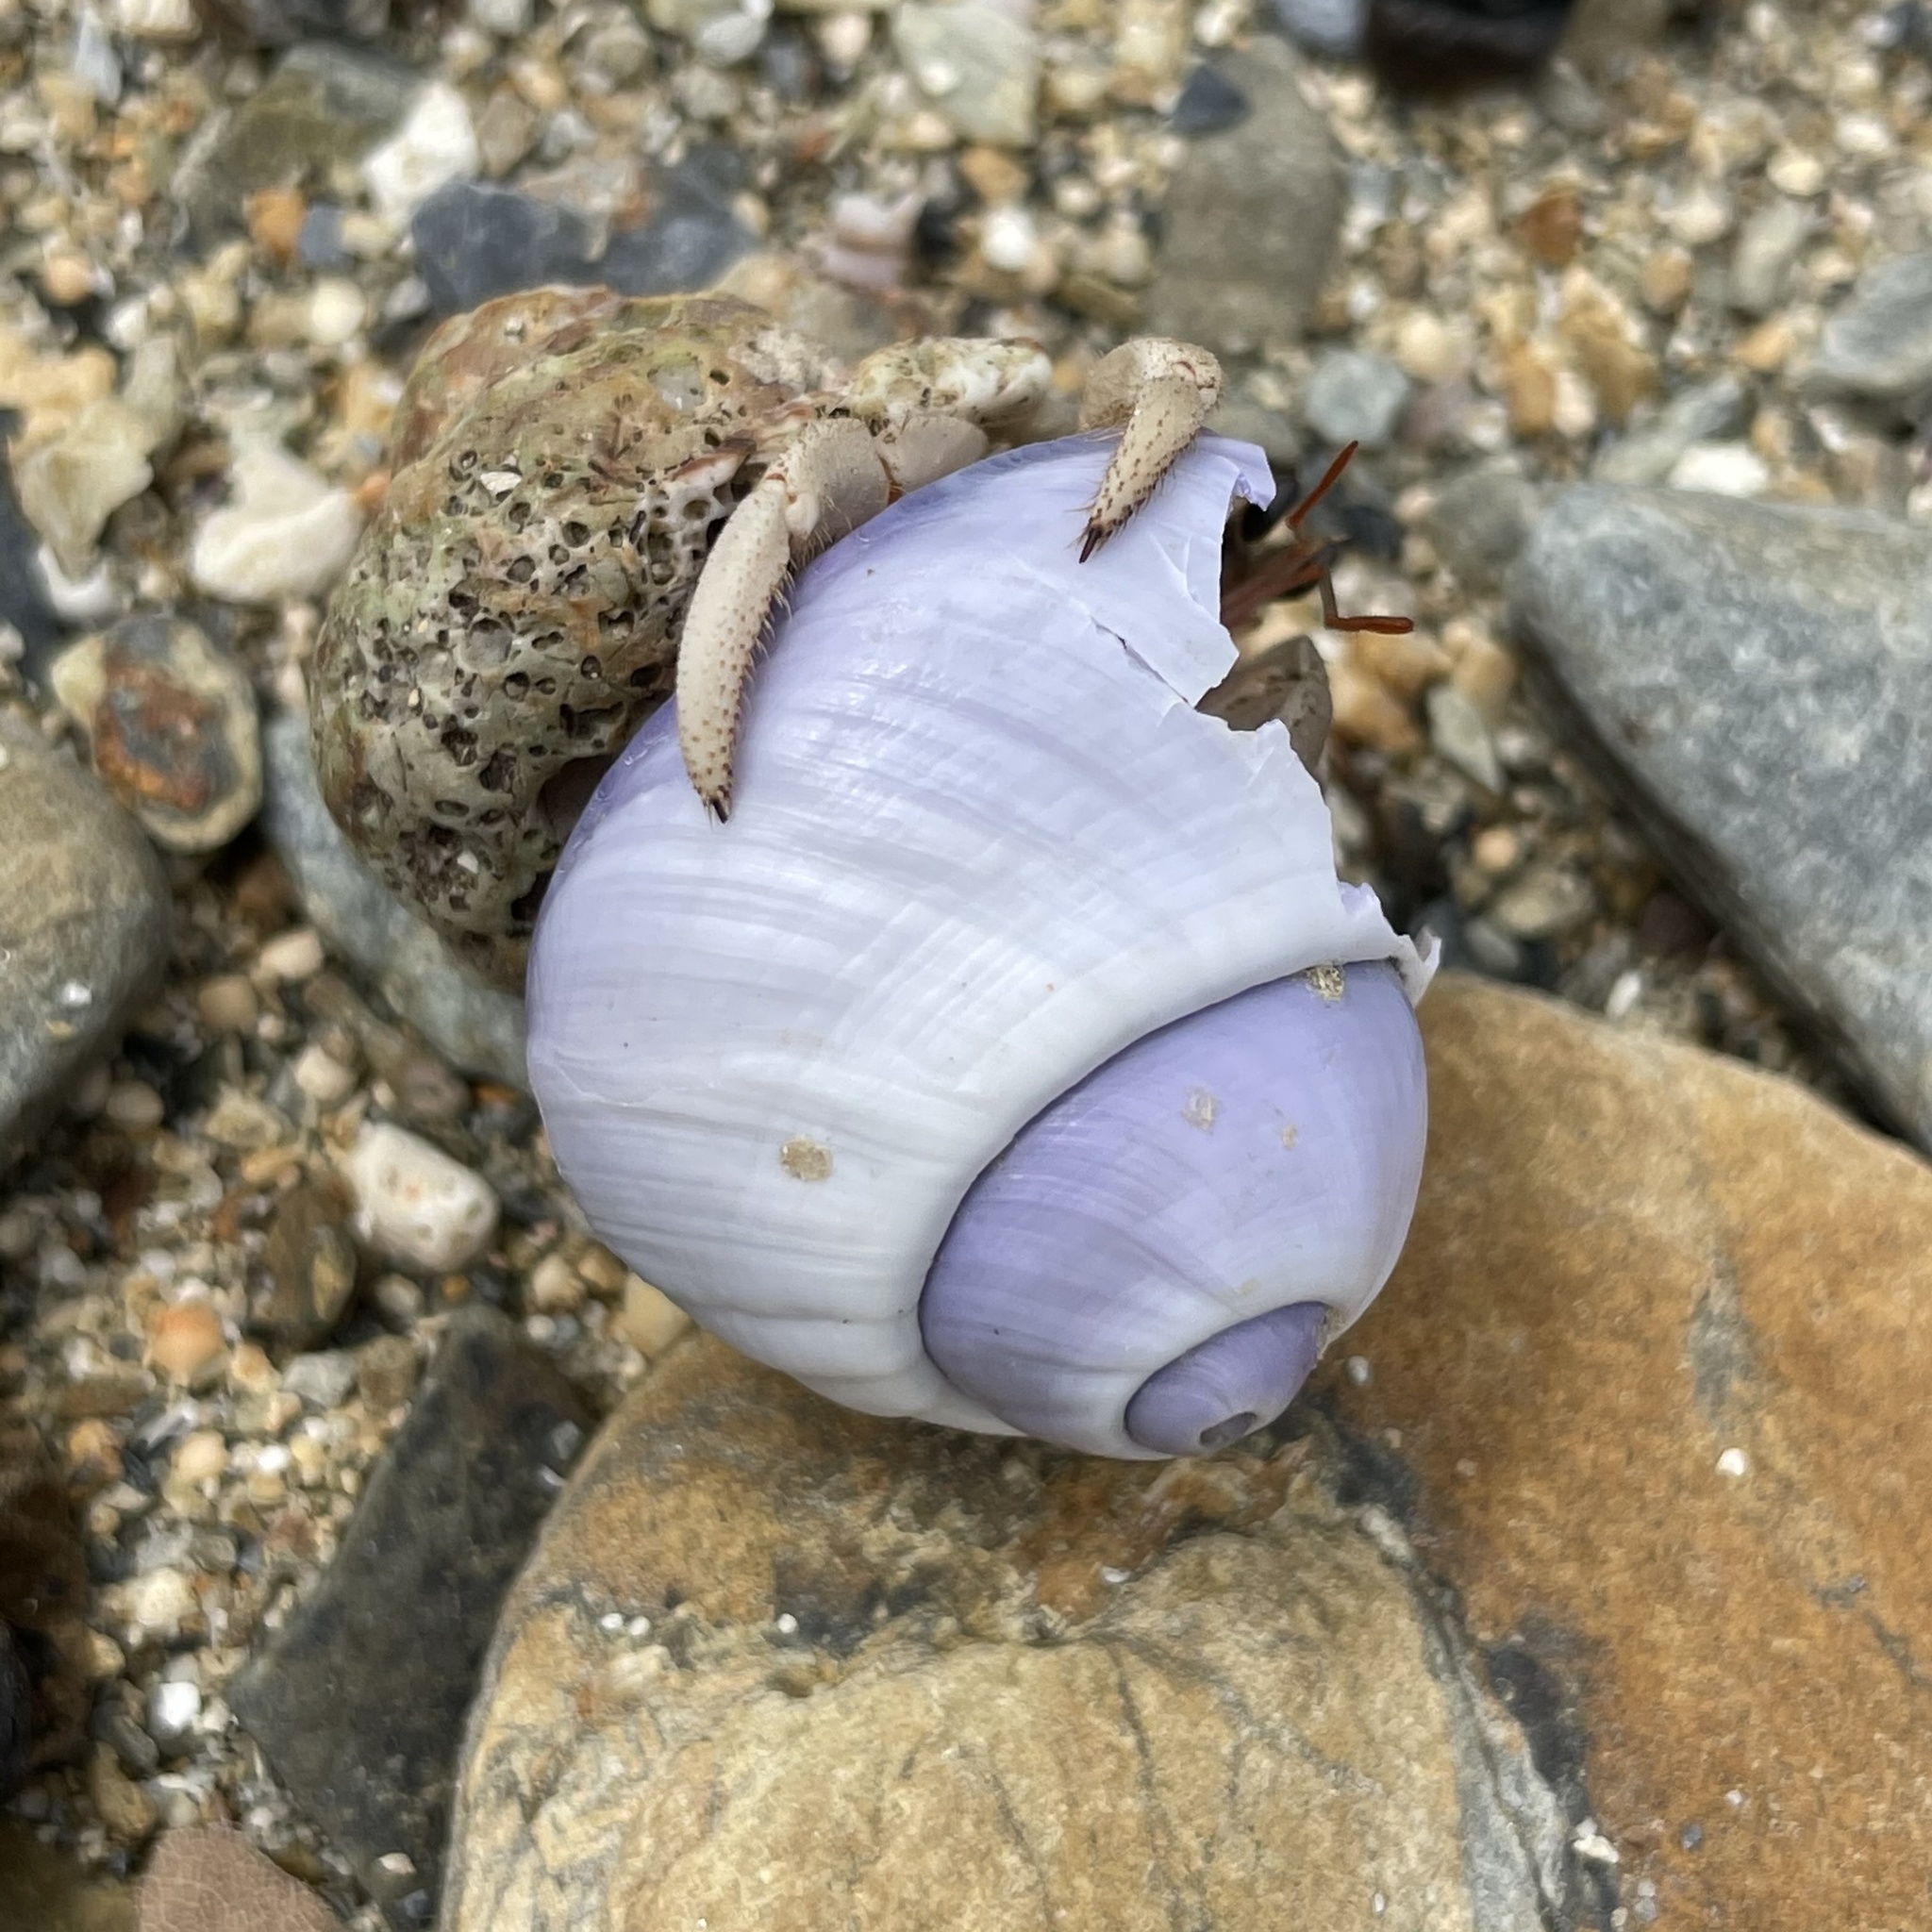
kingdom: Animalia
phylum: Mollusca
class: Gastropoda
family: Epitoniidae
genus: Janthina
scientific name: Janthina janthina
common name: Common janthina
